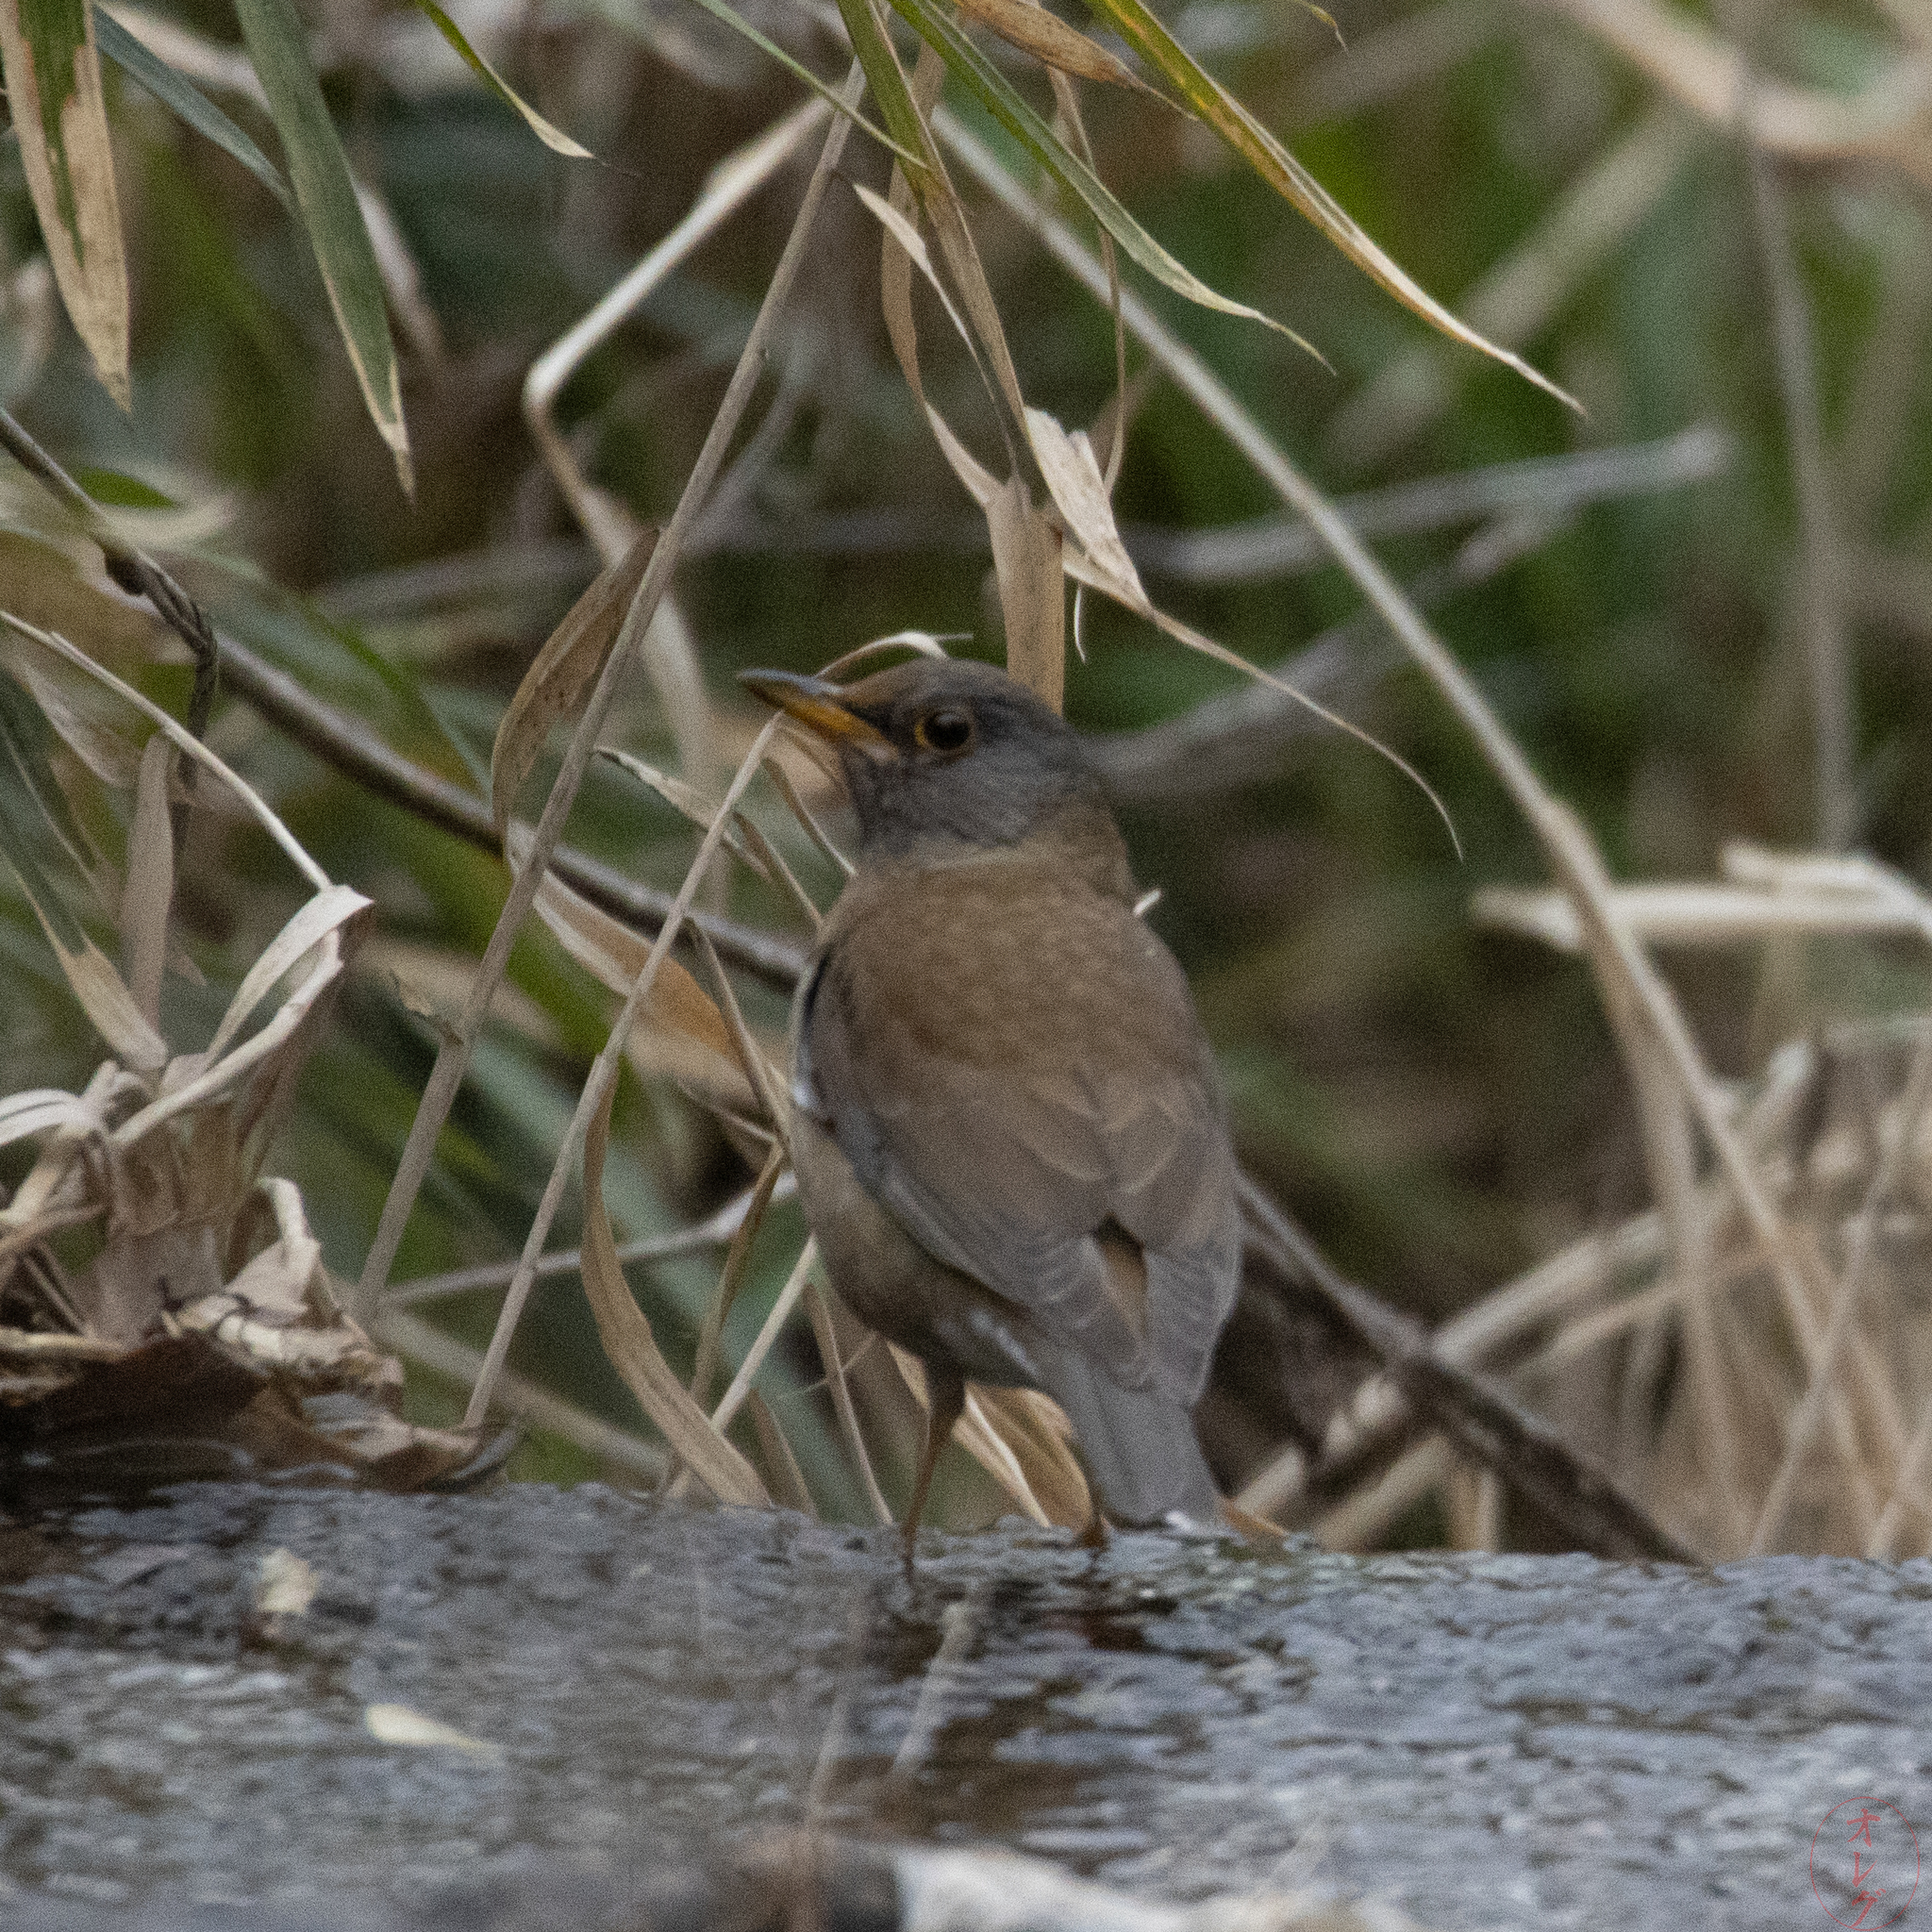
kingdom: Animalia
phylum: Chordata
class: Aves
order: Passeriformes
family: Turdidae
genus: Turdus
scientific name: Turdus pallidus
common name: Pale thrush
